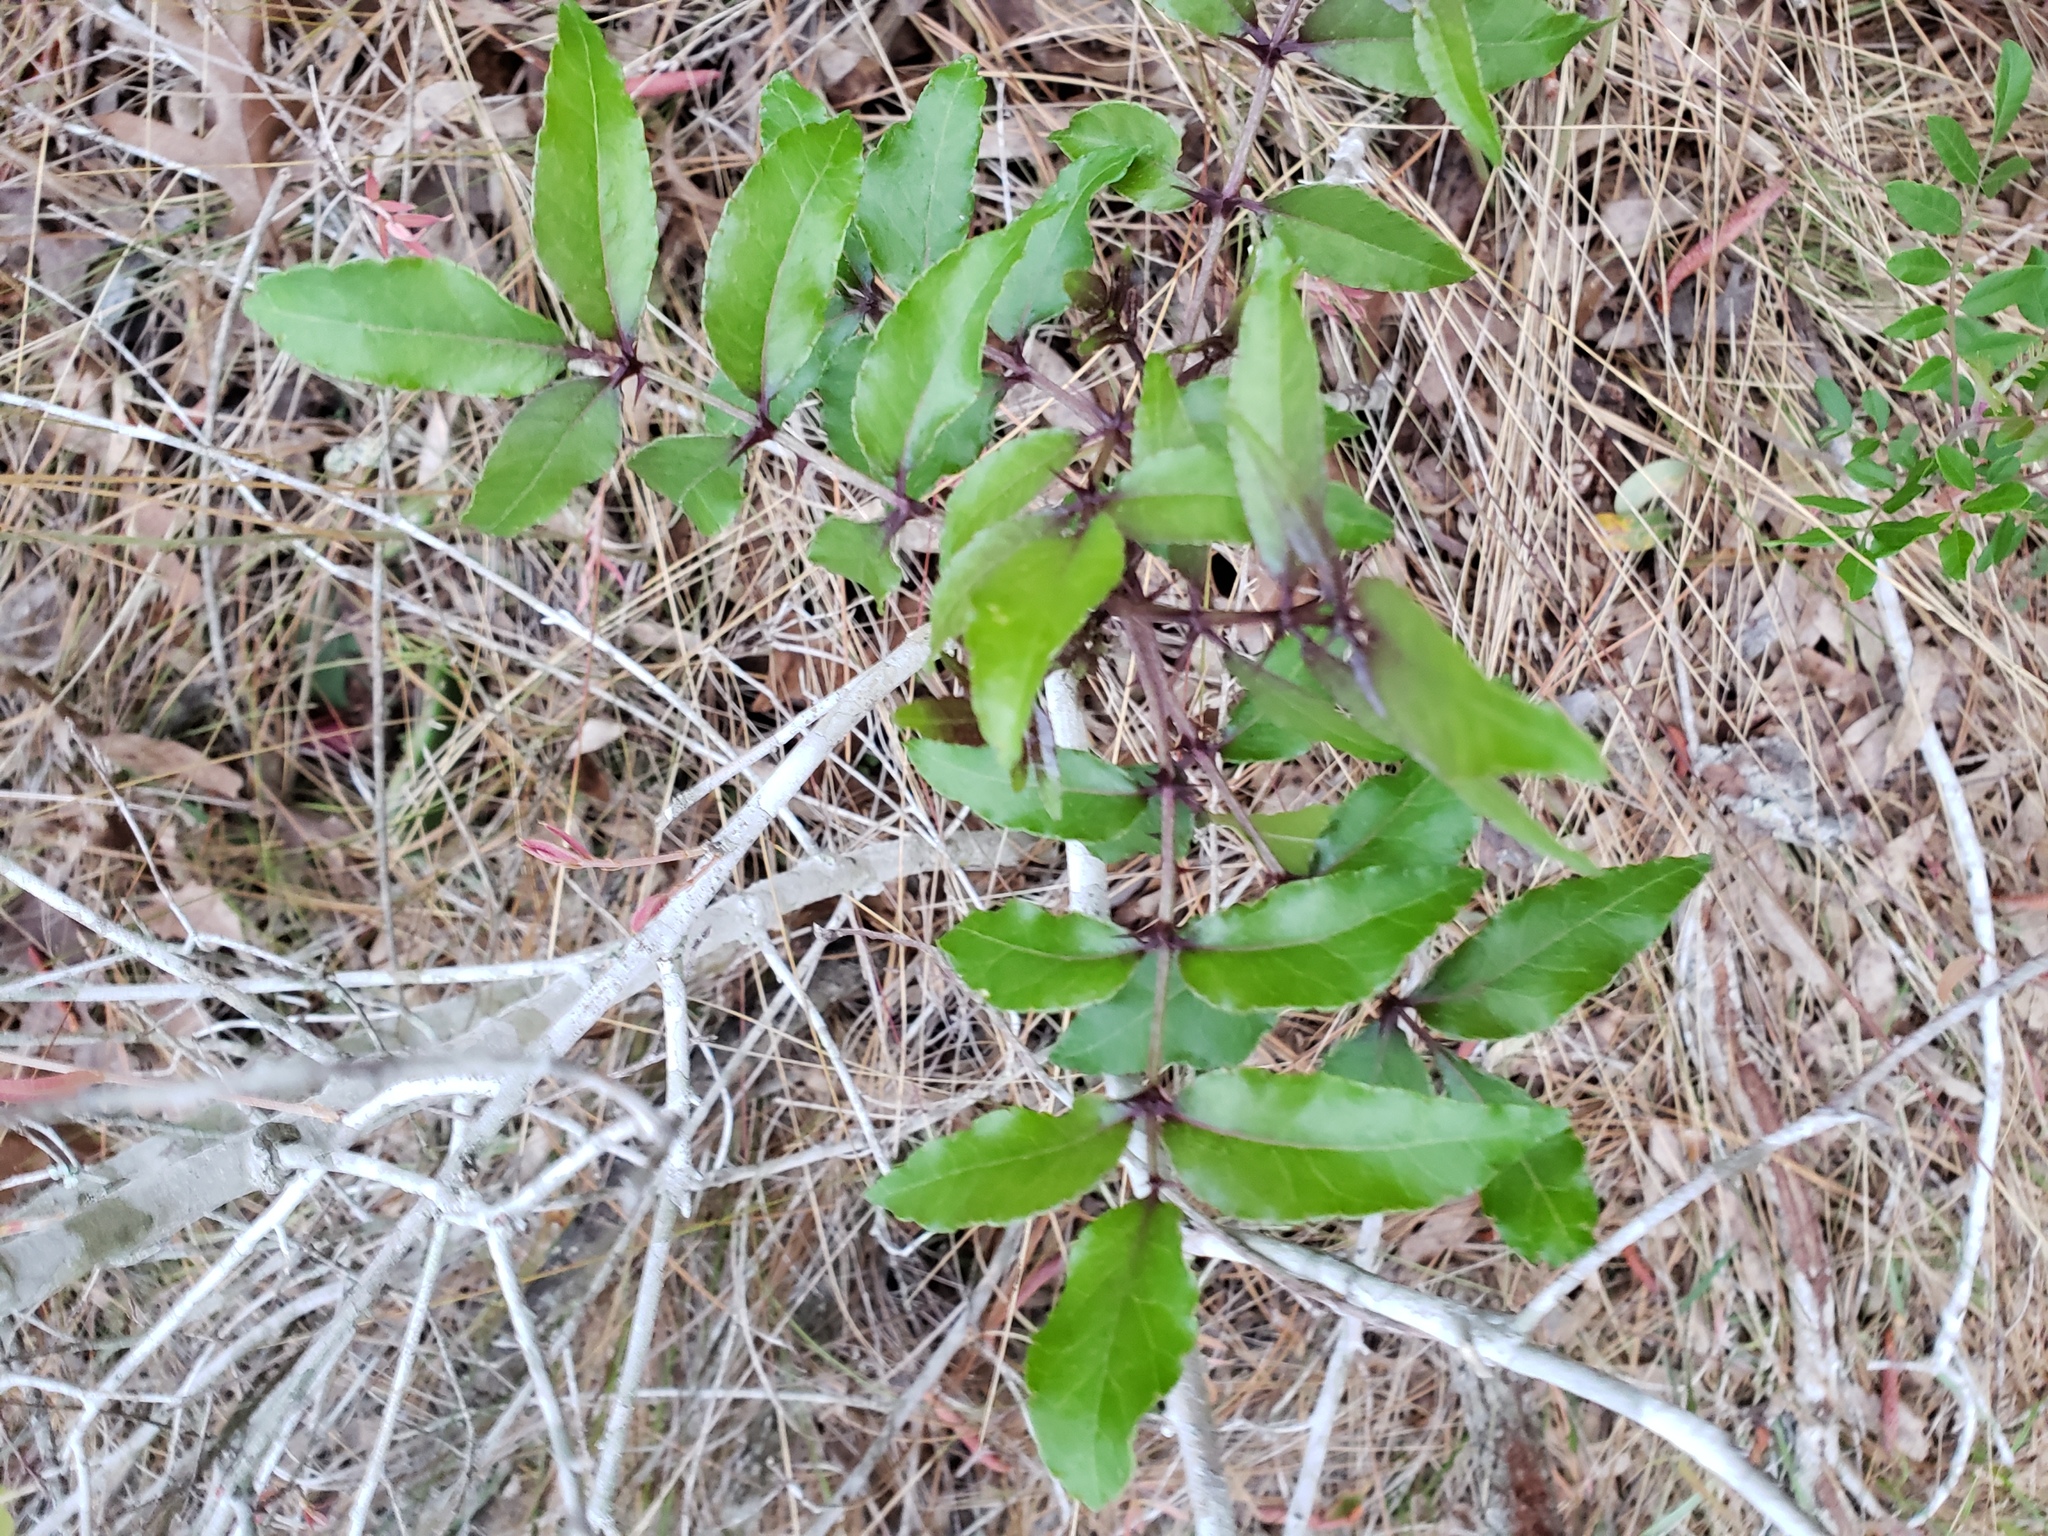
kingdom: Plantae
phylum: Tracheophyta
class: Magnoliopsida
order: Sapindales
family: Rutaceae
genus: Zanthoxylum
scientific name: Zanthoxylum clava-herculis
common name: Hercules'-club
